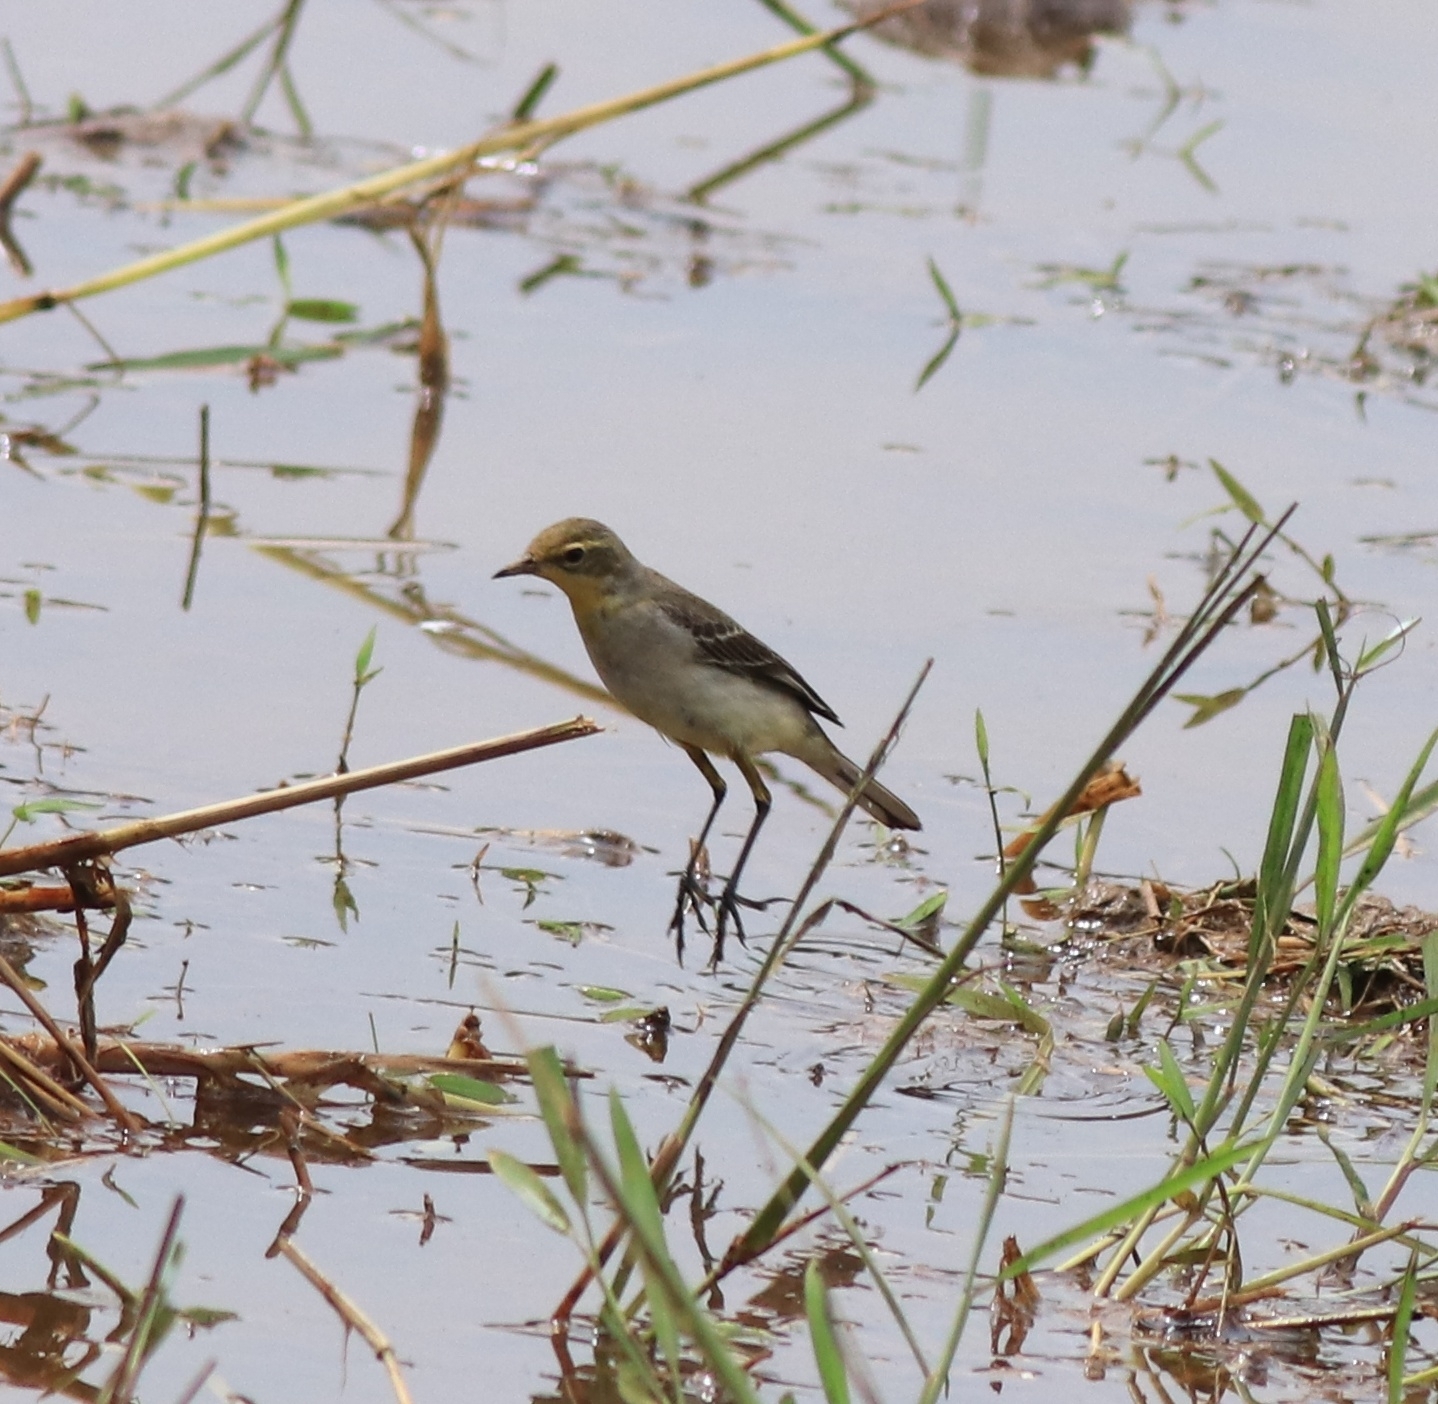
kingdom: Animalia
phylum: Chordata
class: Aves
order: Passeriformes
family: Motacillidae
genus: Motacilla
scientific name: Motacilla flava
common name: Western yellow wagtail
